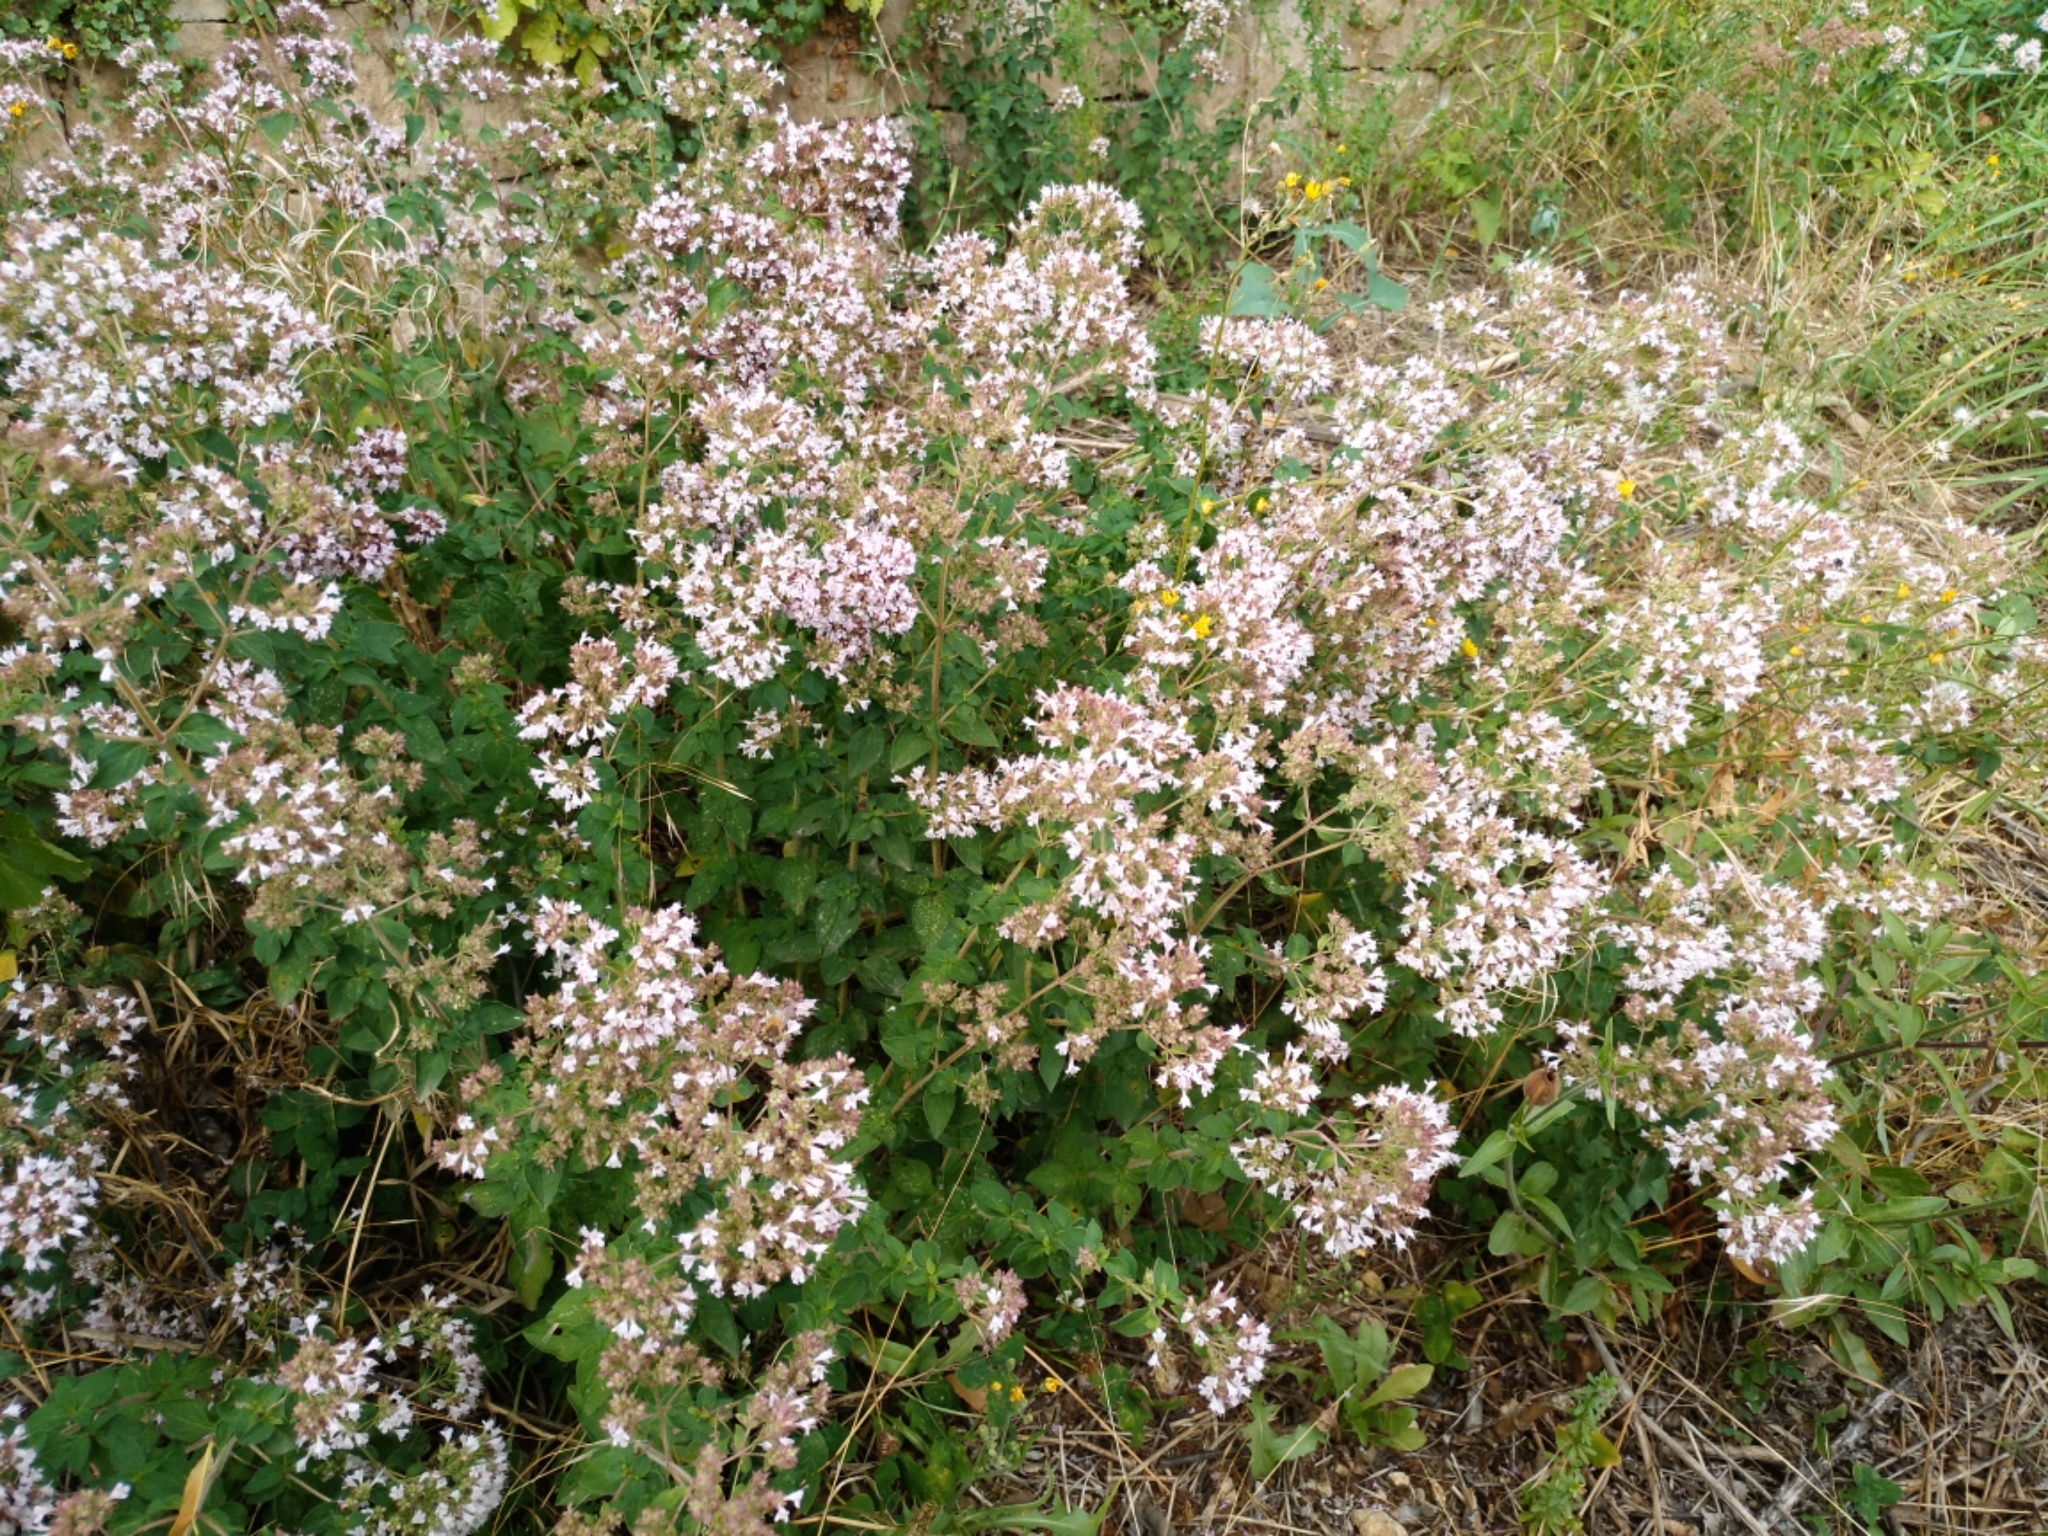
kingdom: Plantae
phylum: Tracheophyta
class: Magnoliopsida
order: Lamiales
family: Lamiaceae
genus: Origanum
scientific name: Origanum vulgare
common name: Wild marjoram
